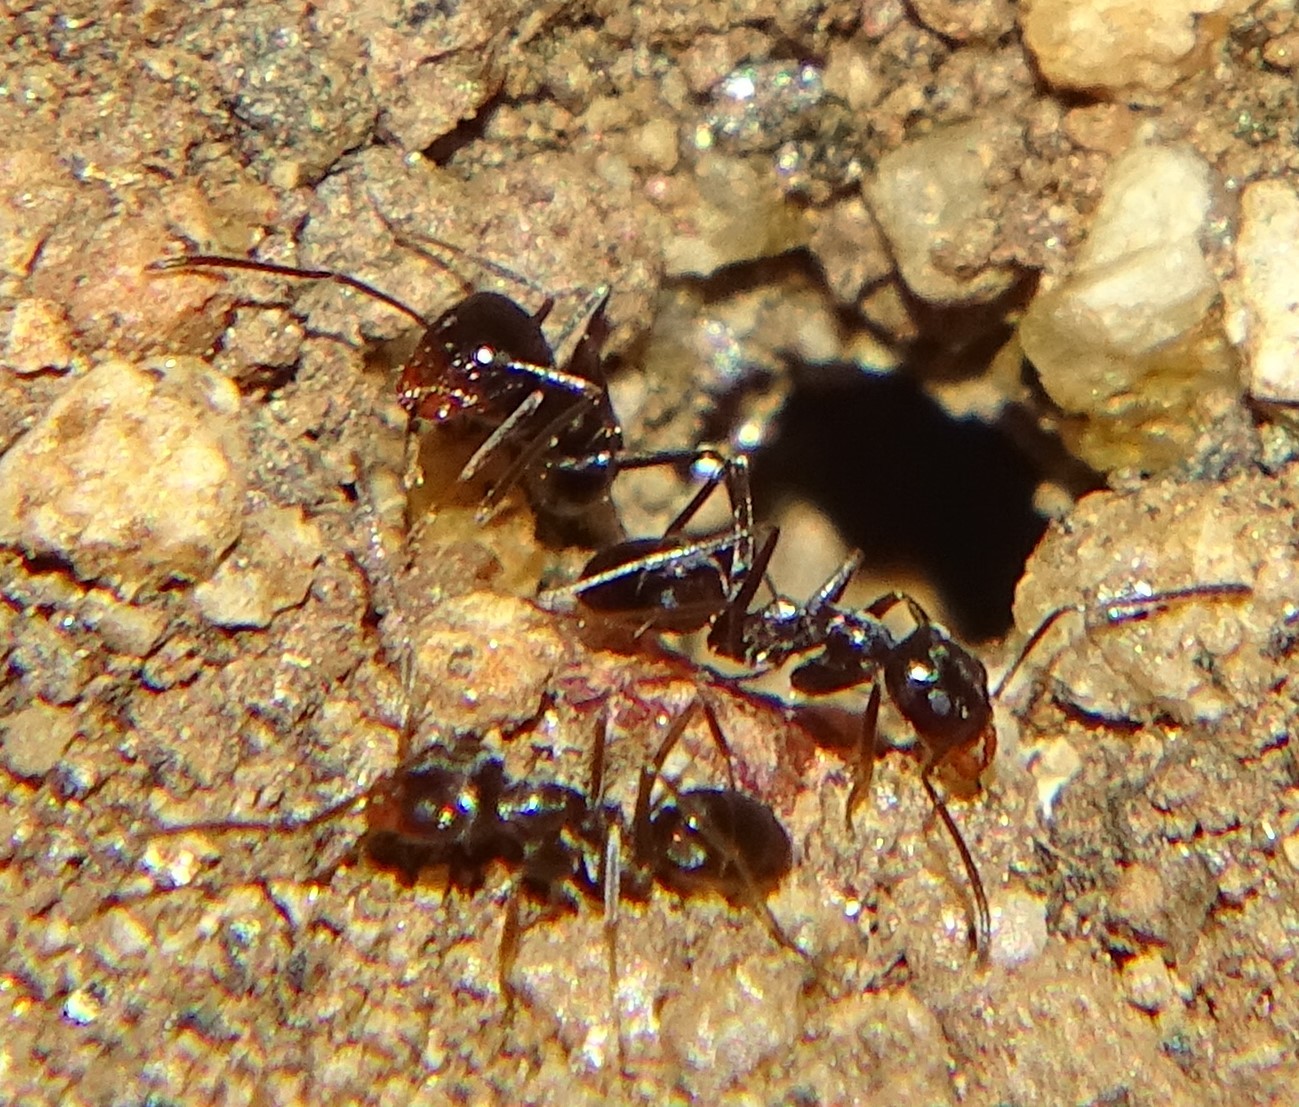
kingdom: Animalia
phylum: Arthropoda
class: Insecta
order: Hymenoptera
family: Formicidae
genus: Dorymyrmex
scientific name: Dorymyrmex insanus
